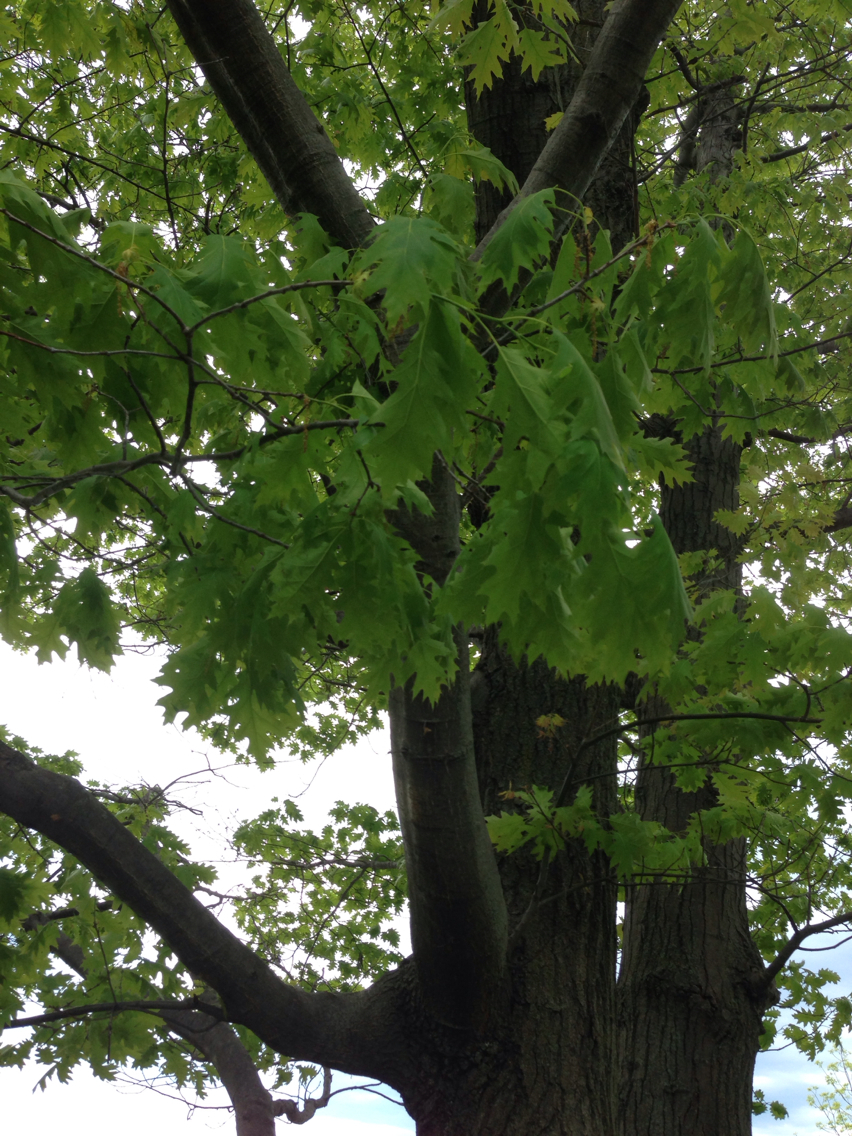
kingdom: Plantae
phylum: Tracheophyta
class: Magnoliopsida
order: Fagales
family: Fagaceae
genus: Quercus
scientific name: Quercus rubra
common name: Red oak
